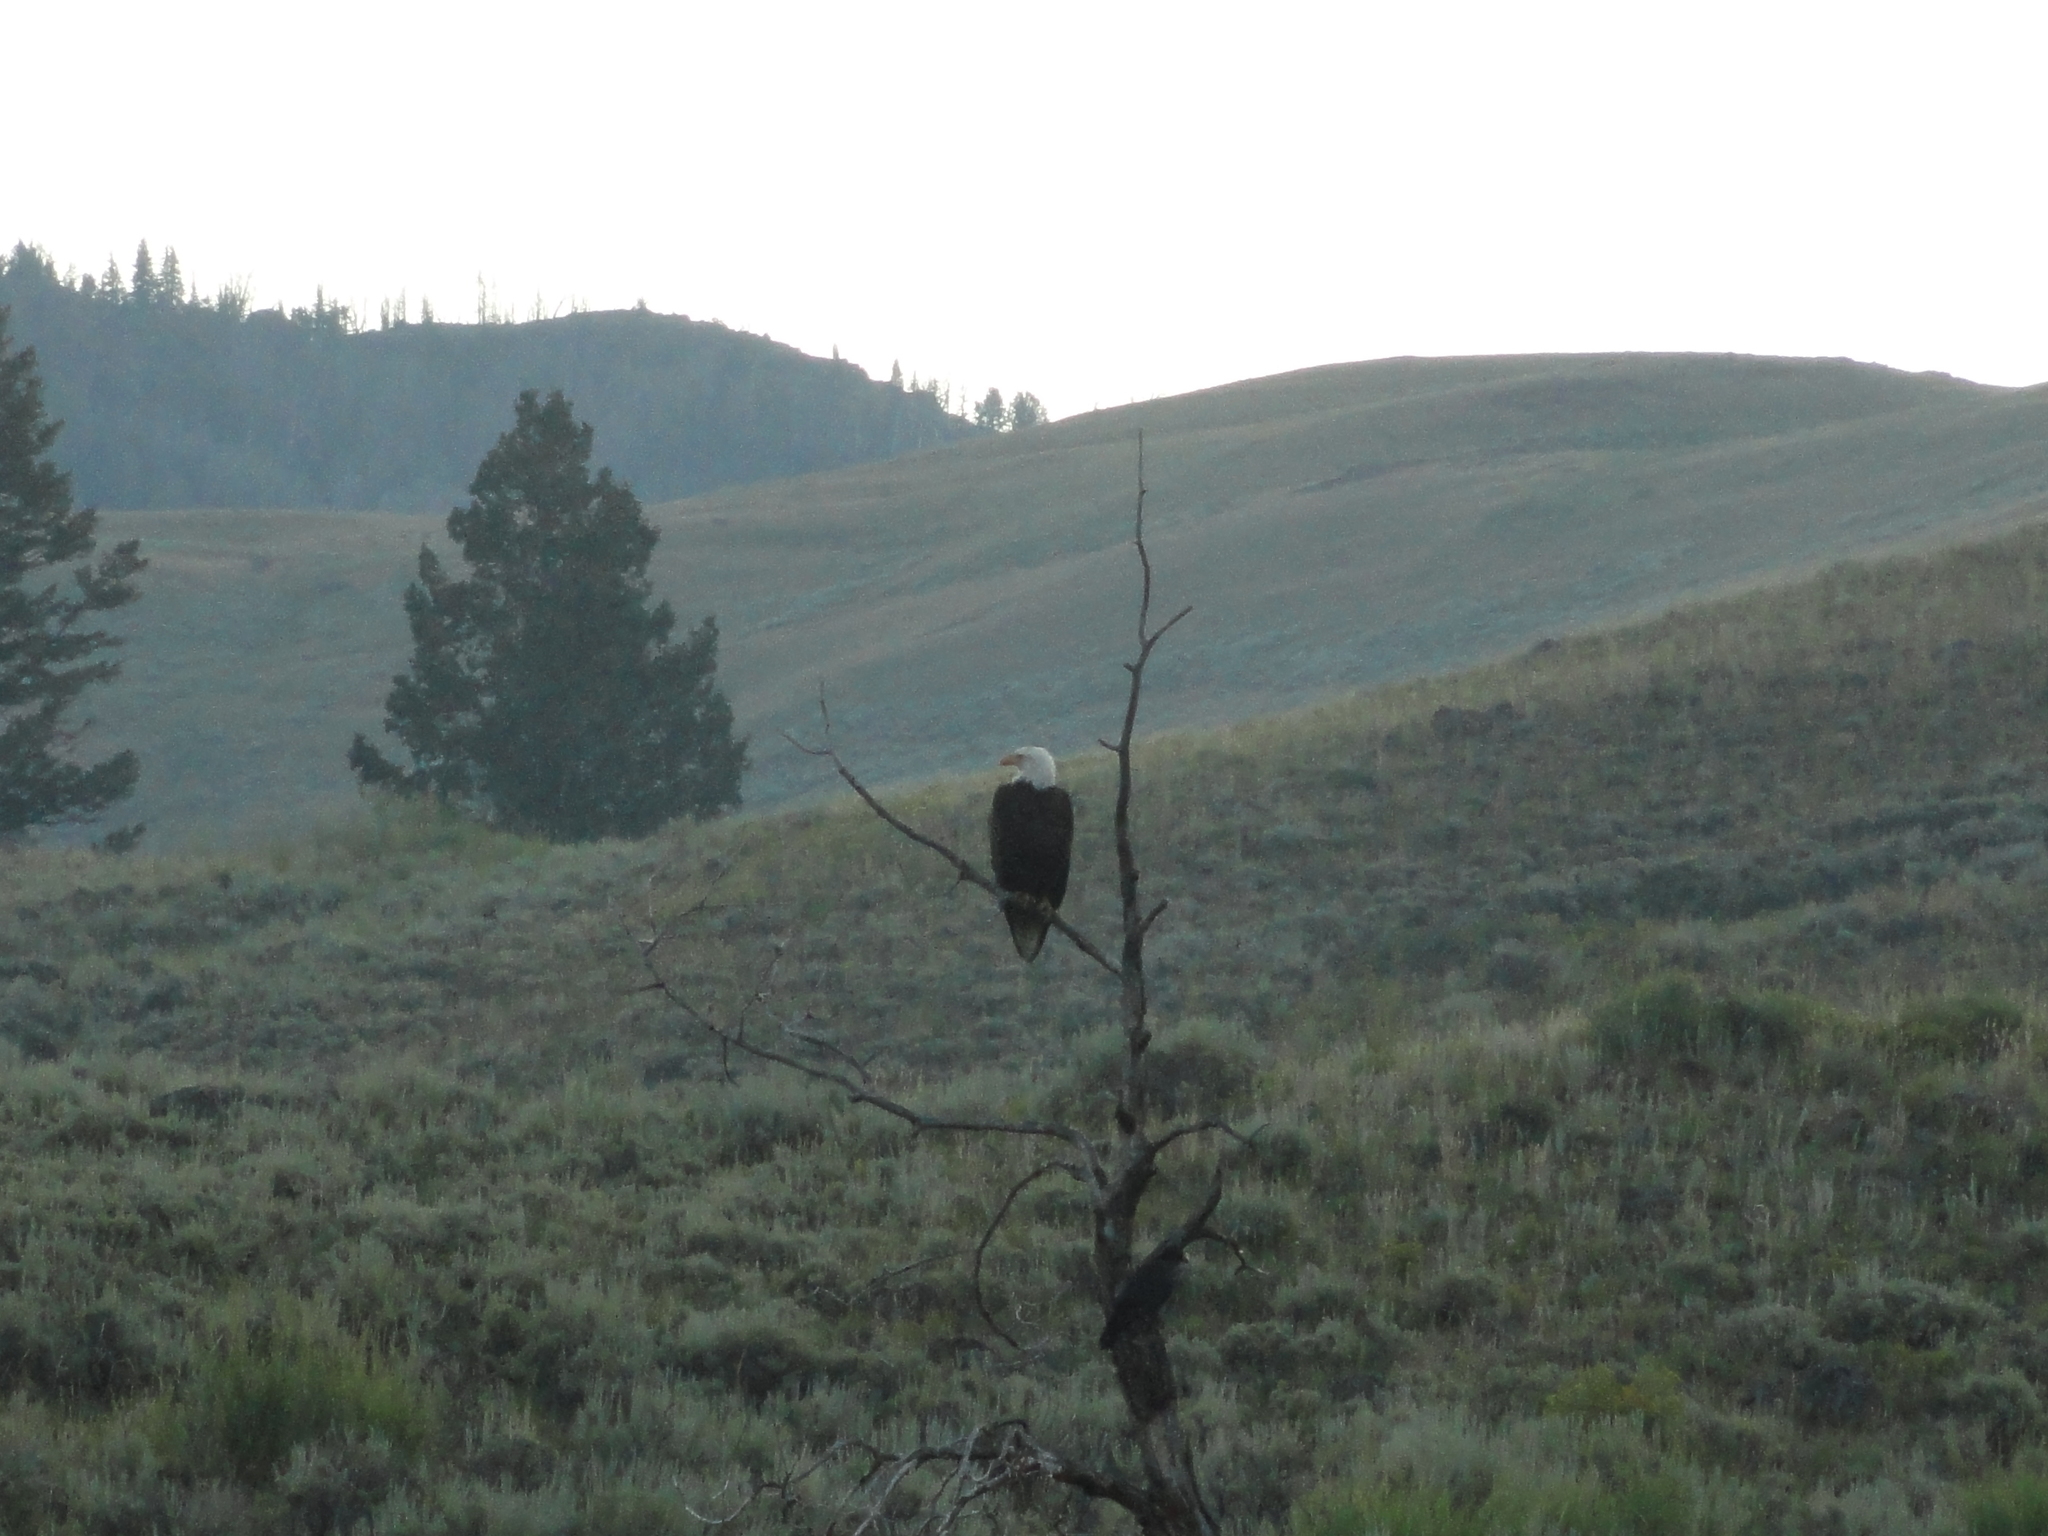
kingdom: Animalia
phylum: Chordata
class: Aves
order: Accipitriformes
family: Accipitridae
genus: Haliaeetus
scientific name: Haliaeetus leucocephalus
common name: Bald eagle
